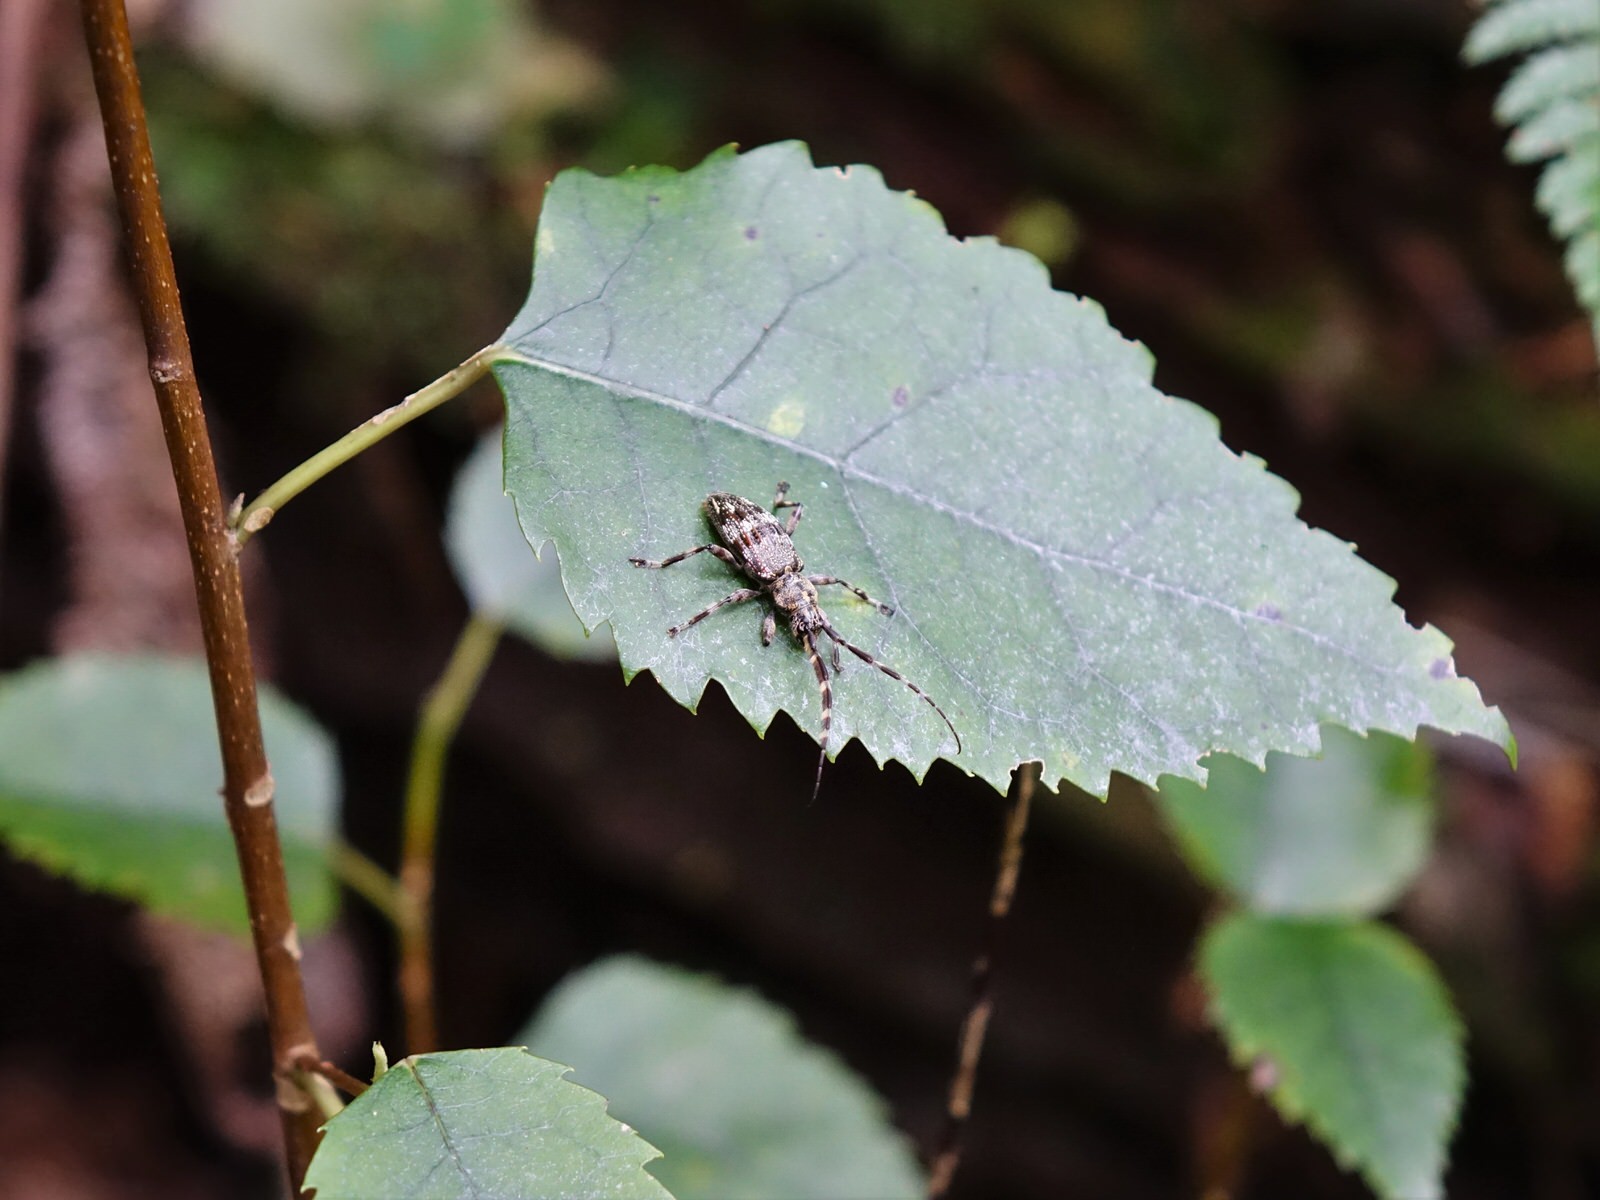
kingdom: Animalia
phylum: Arthropoda
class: Insecta
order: Coleoptera
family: Cerambycidae
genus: Hexatricha
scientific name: Hexatricha pulverulenta
